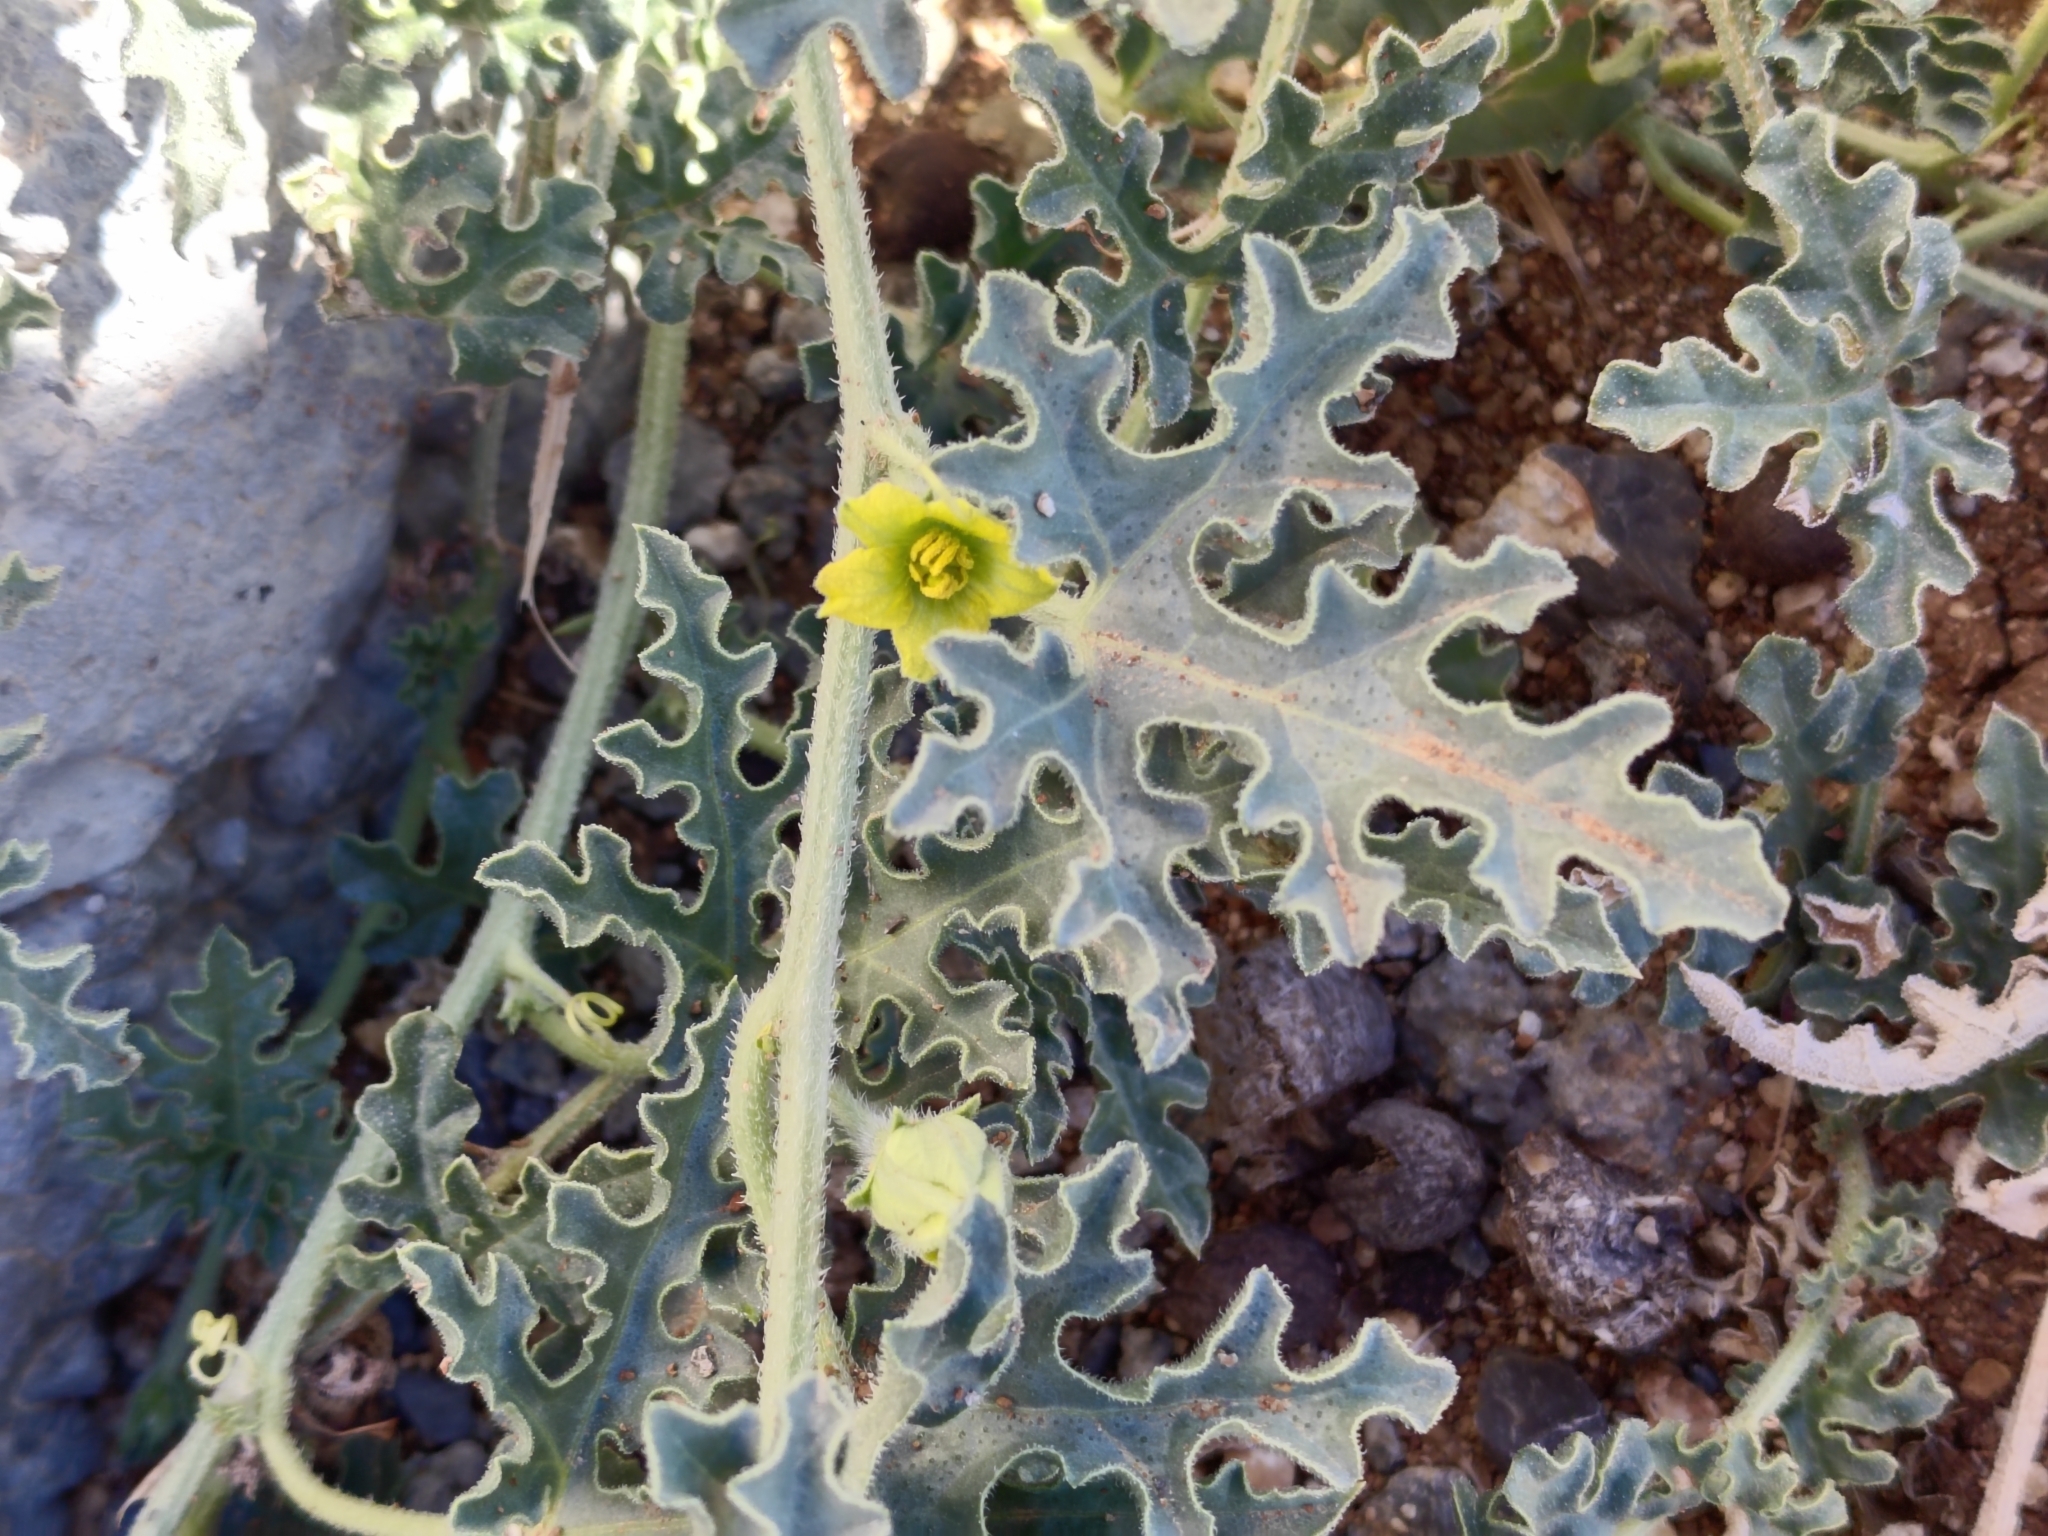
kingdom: Plantae
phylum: Tracheophyta
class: Magnoliopsida
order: Cucurbitales
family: Cucurbitaceae
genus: Citrullus
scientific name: Citrullus colocynthis
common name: Colocynth
